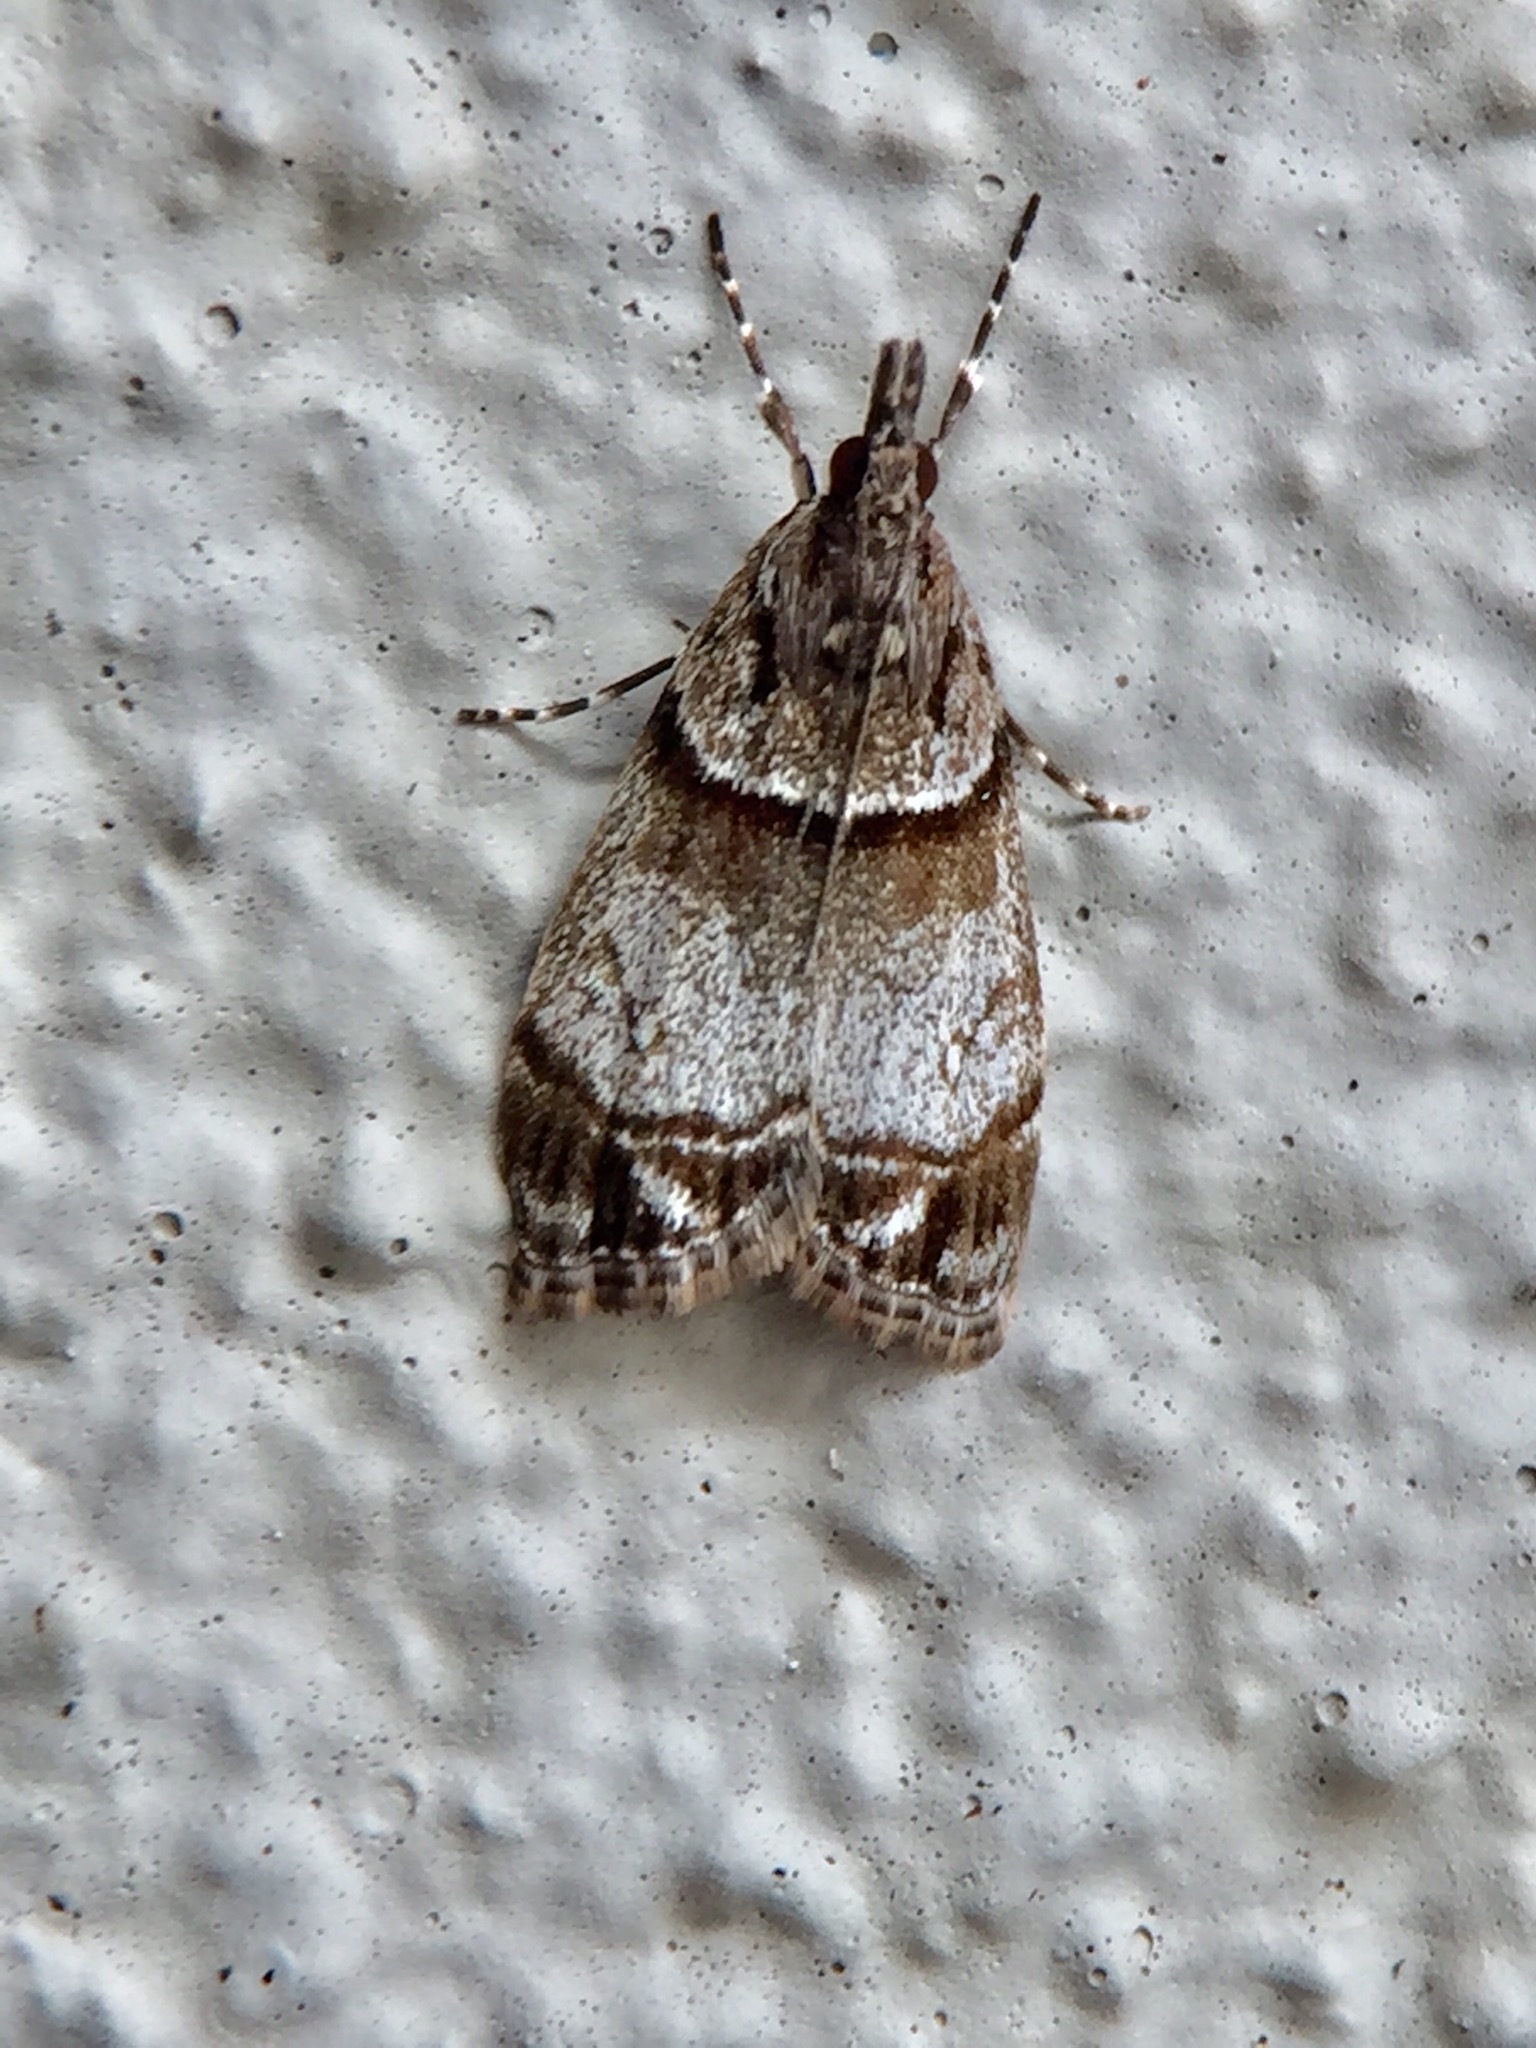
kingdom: Animalia
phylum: Arthropoda
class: Insecta
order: Lepidoptera
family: Crambidae
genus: Eudonia
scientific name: Eudonia choristis
